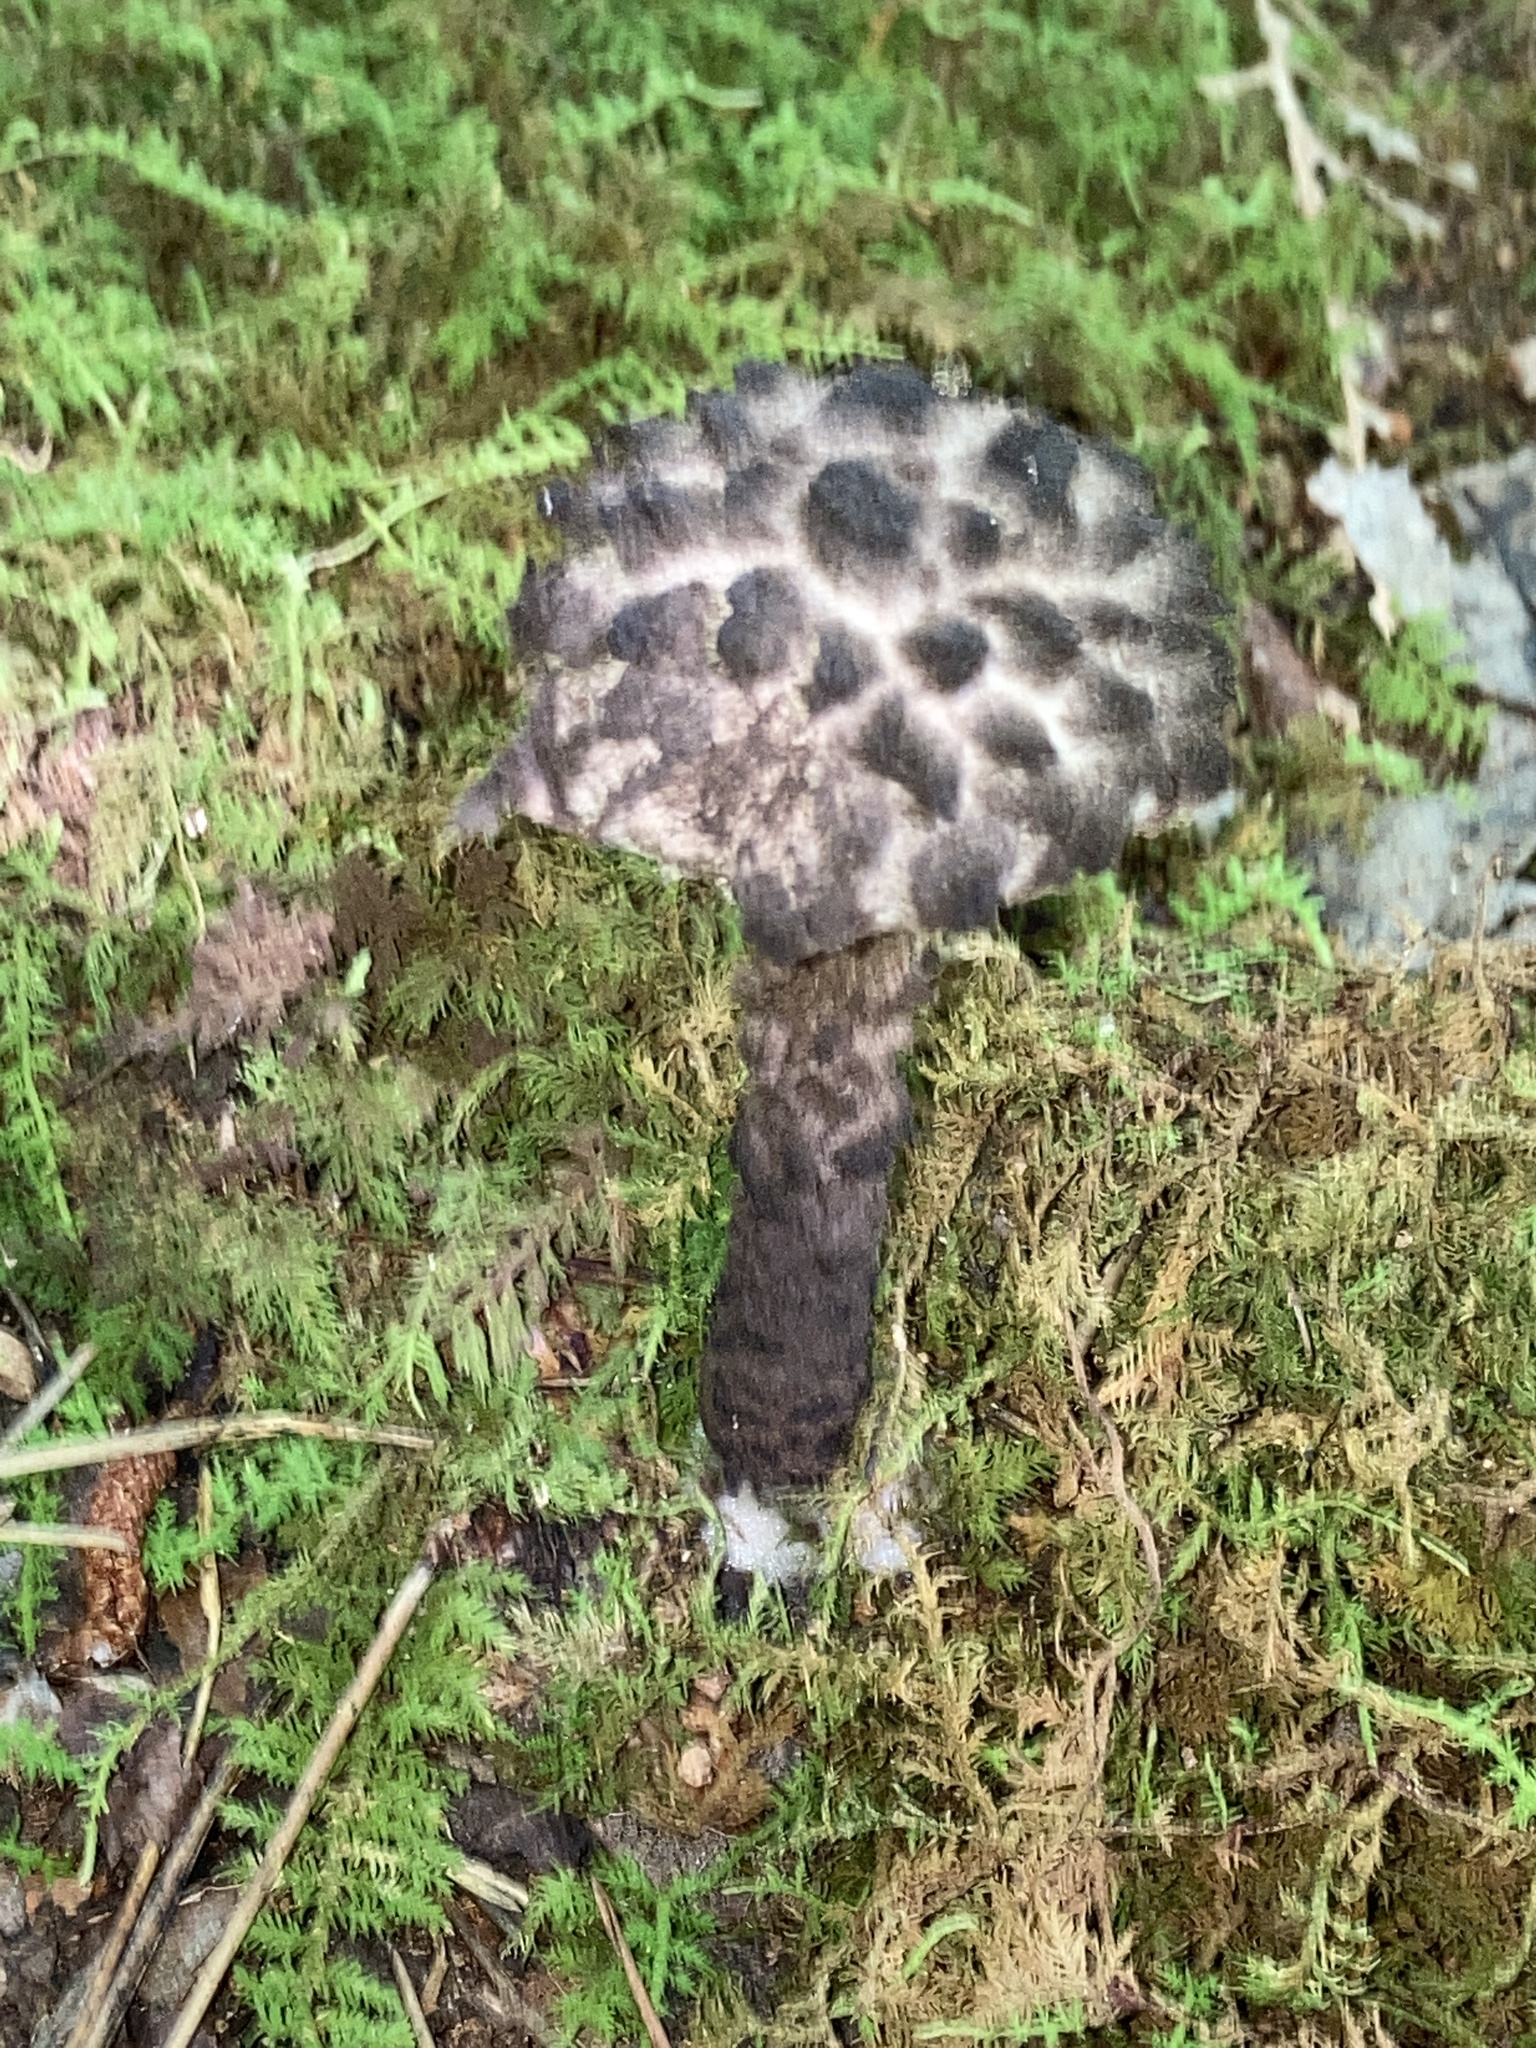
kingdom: Fungi
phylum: Basidiomycota
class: Agaricomycetes
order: Boletales
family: Boletaceae
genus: Strobilomyces
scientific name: Strobilomyces strobilaceus
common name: Old man of the woods
